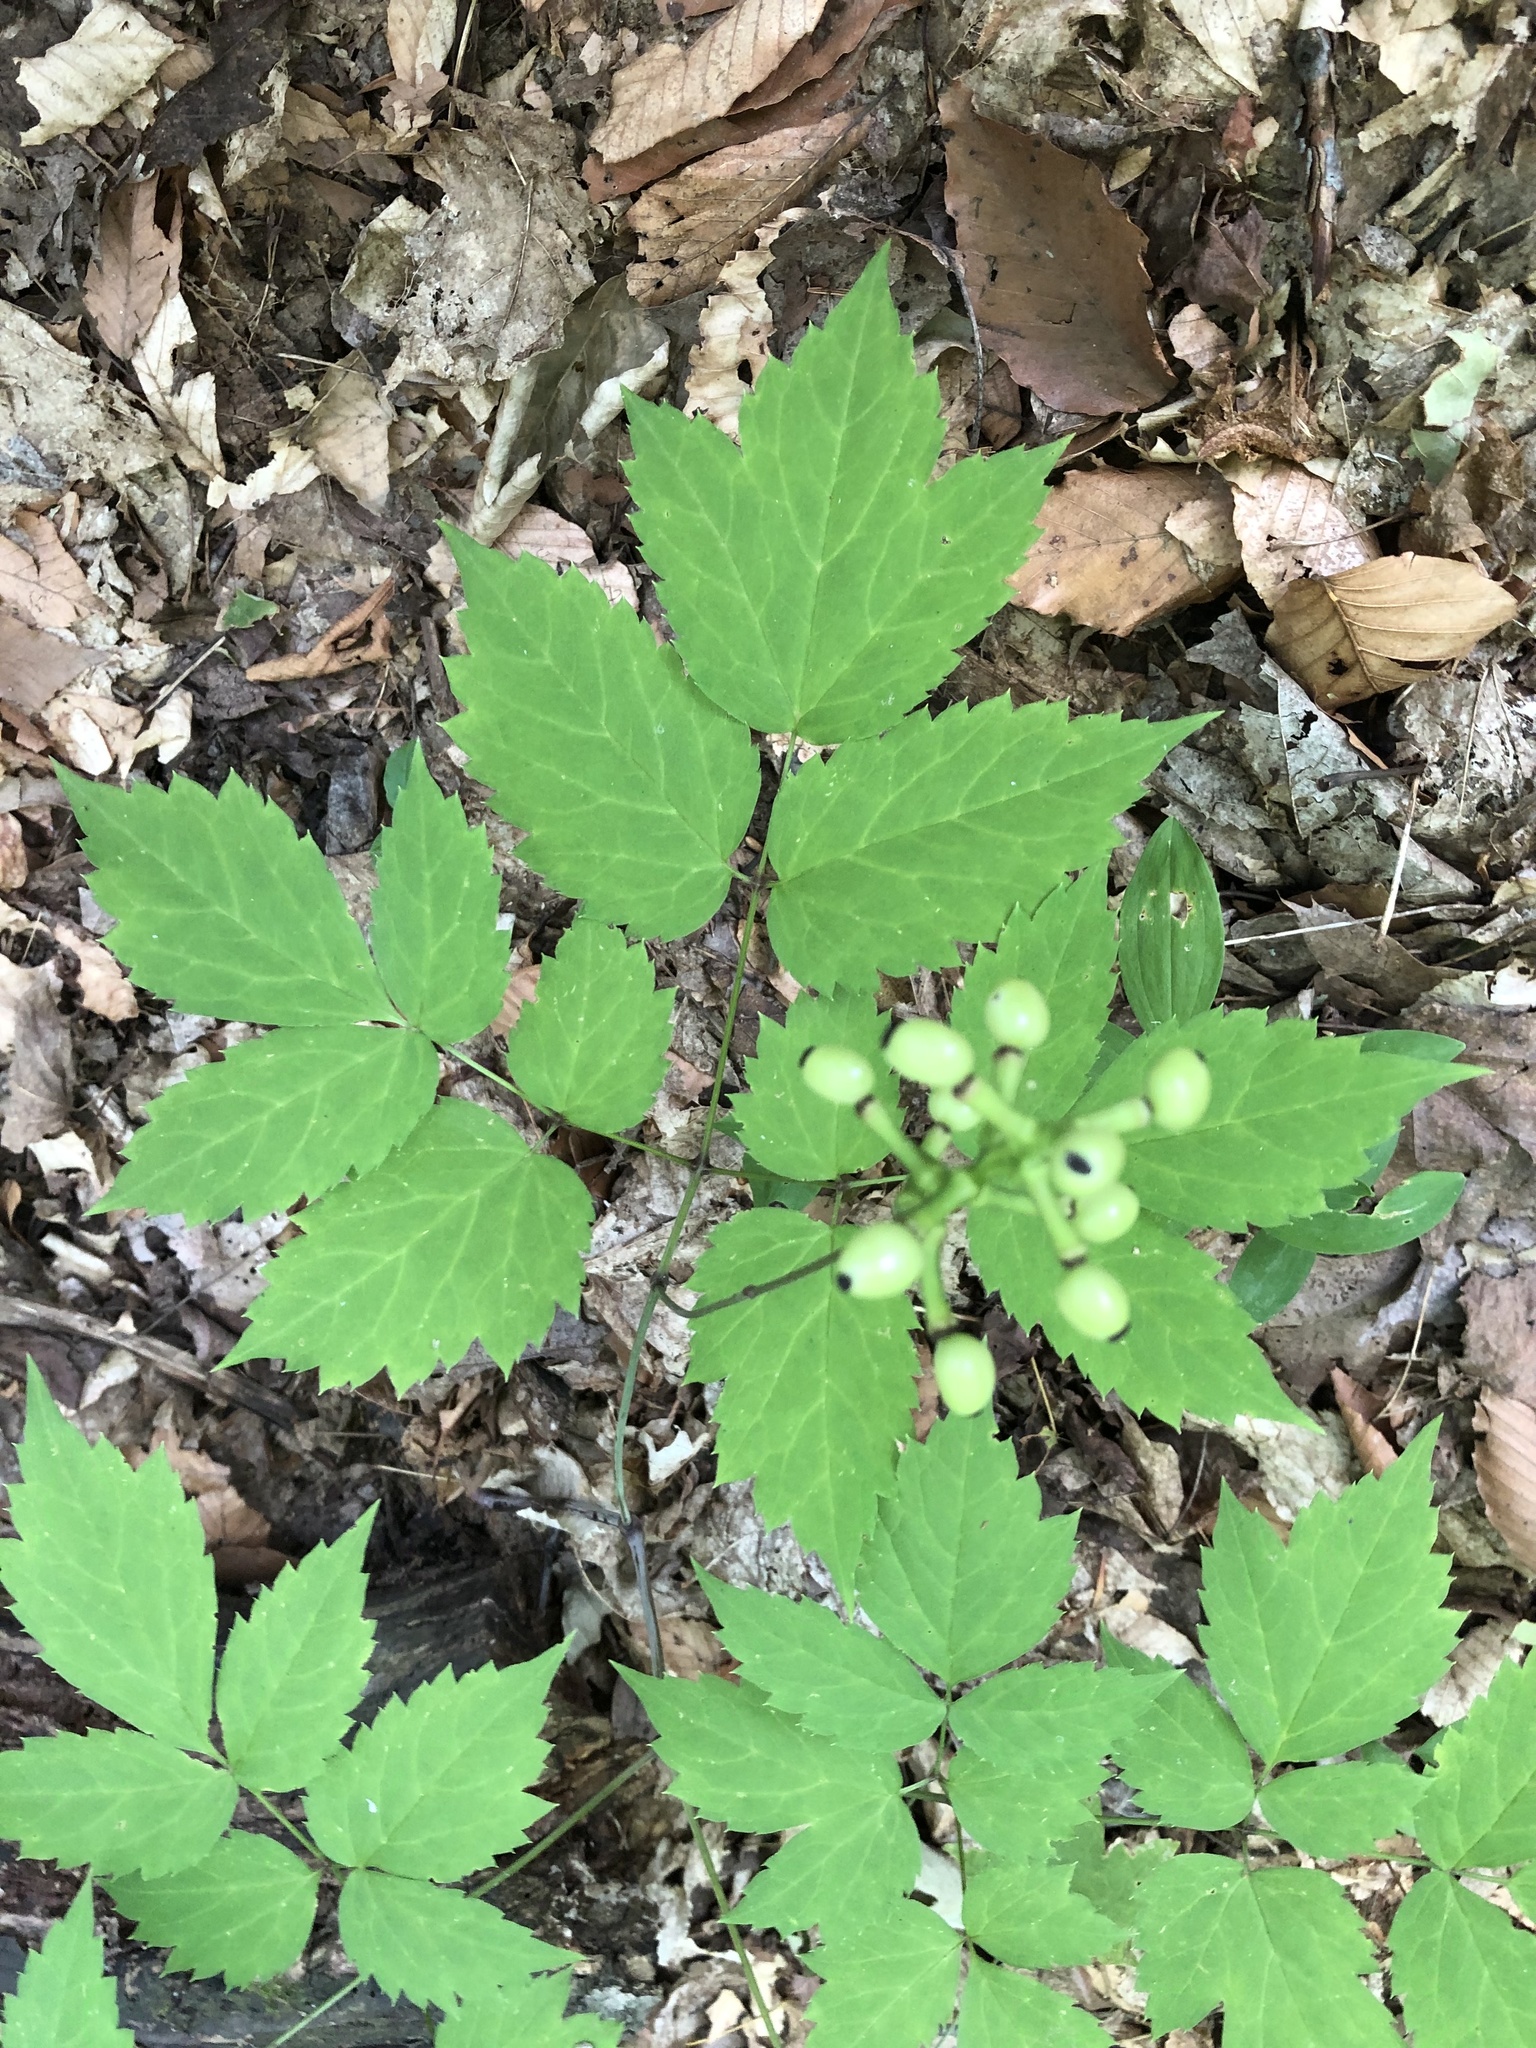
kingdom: Plantae
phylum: Tracheophyta
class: Magnoliopsida
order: Ranunculales
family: Ranunculaceae
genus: Actaea
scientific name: Actaea pachypoda
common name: Doll's-eyes
